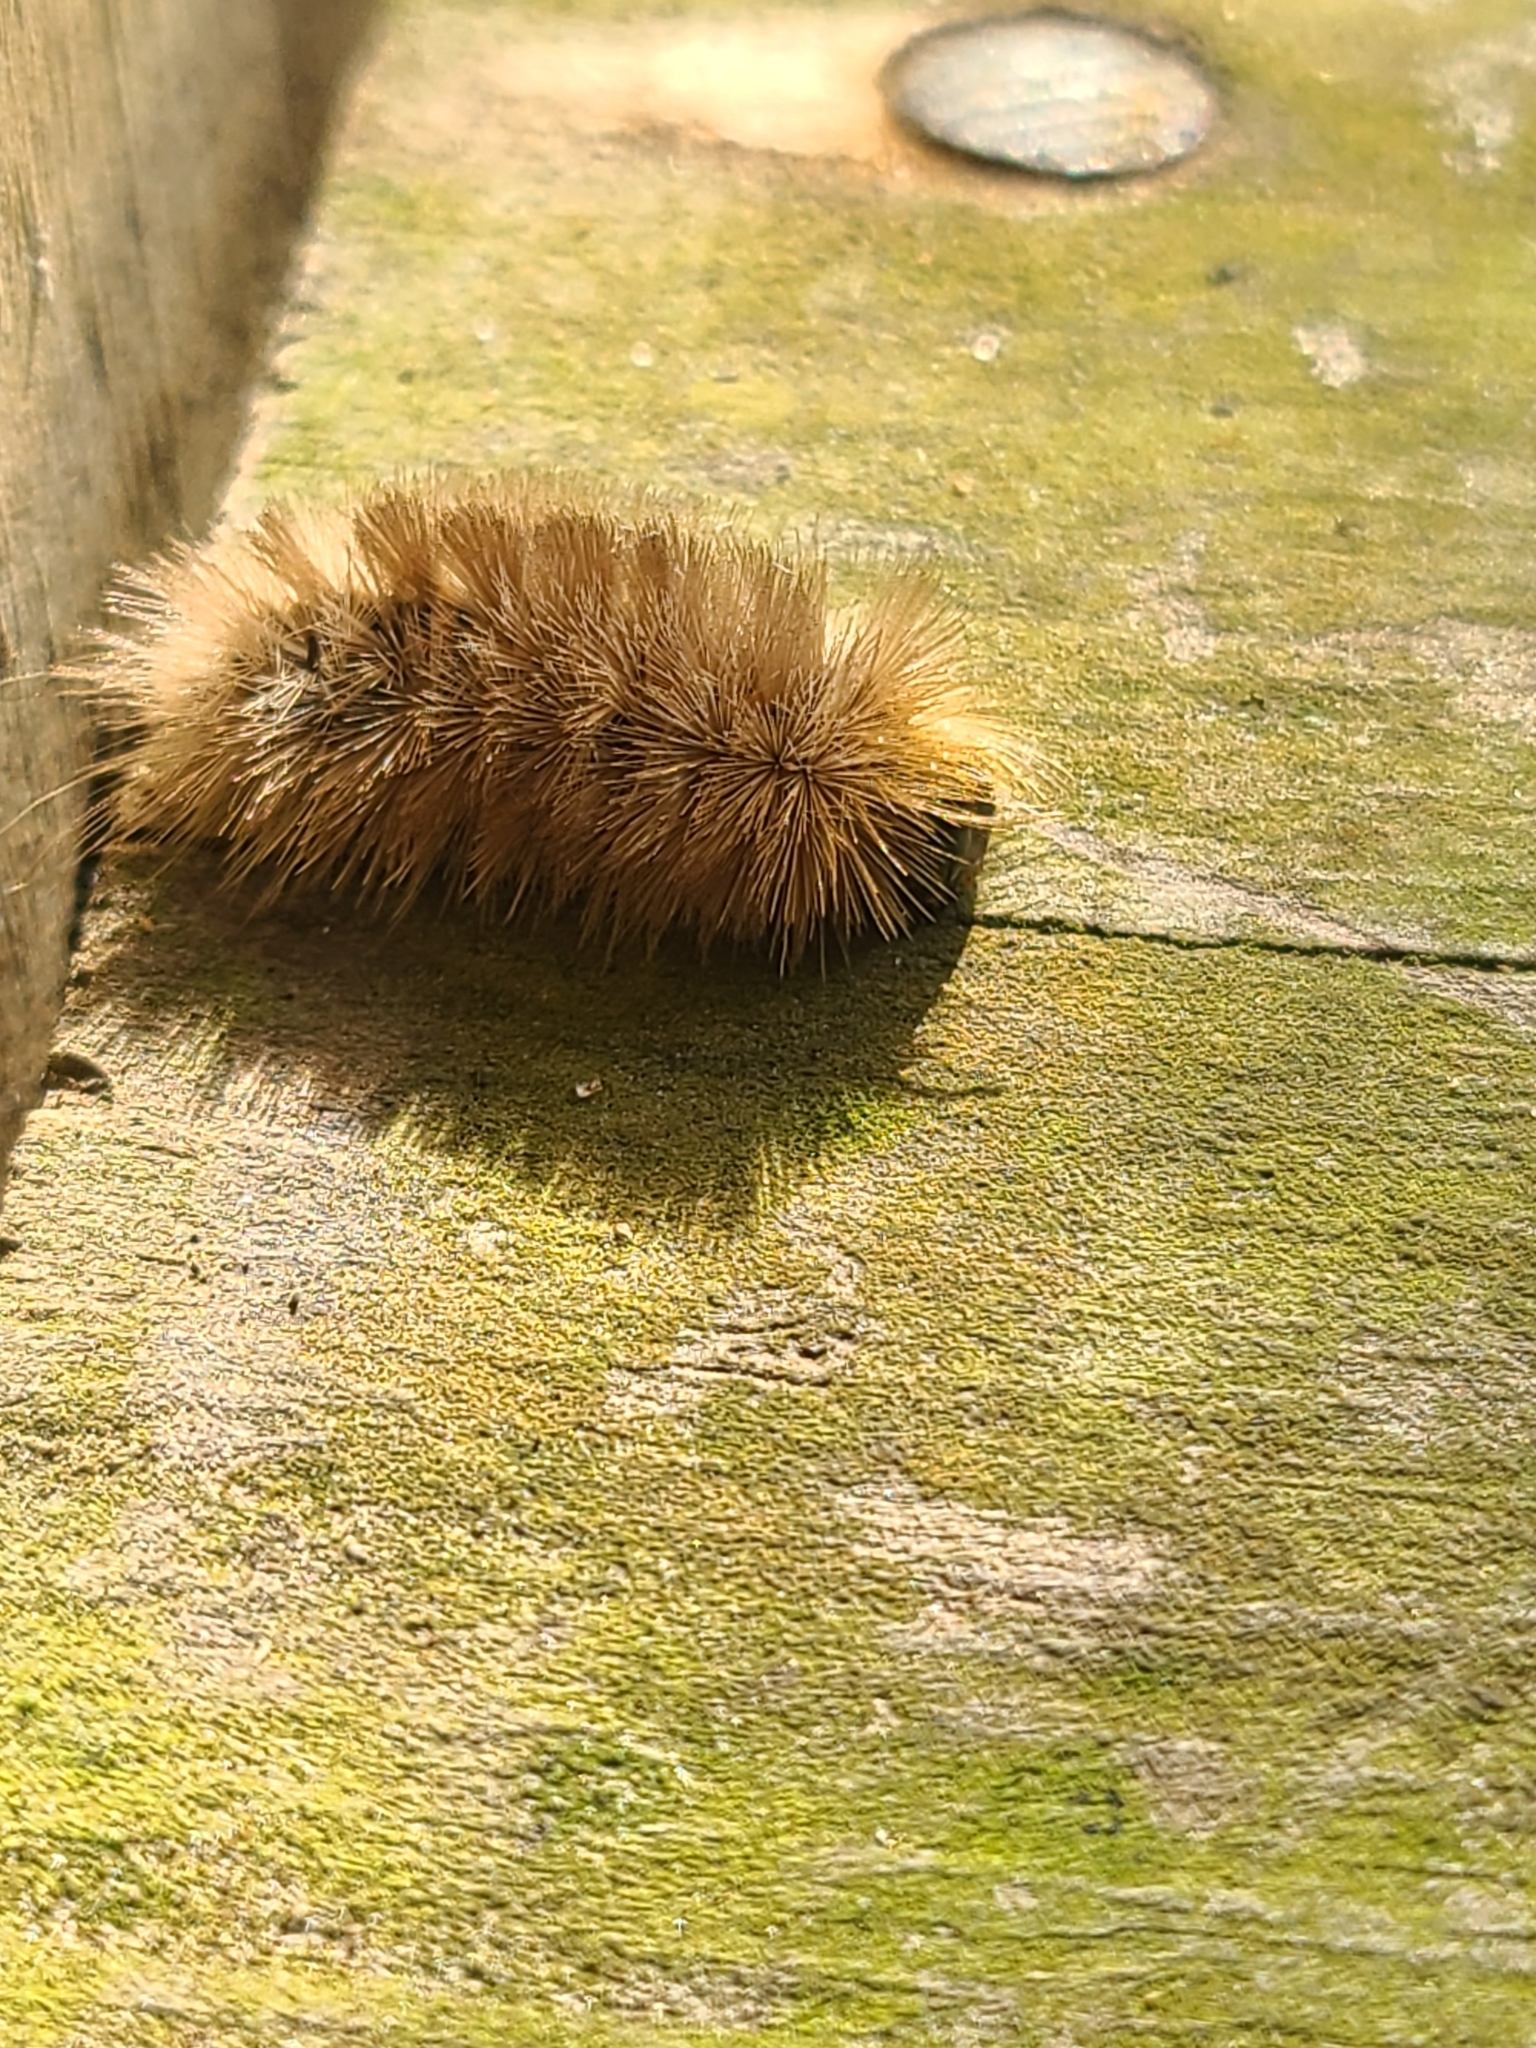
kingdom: Animalia
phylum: Arthropoda
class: Insecta
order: Lepidoptera
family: Erebidae
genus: Halysidota
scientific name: Halysidota tessellaris
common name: Banded tussock moth
